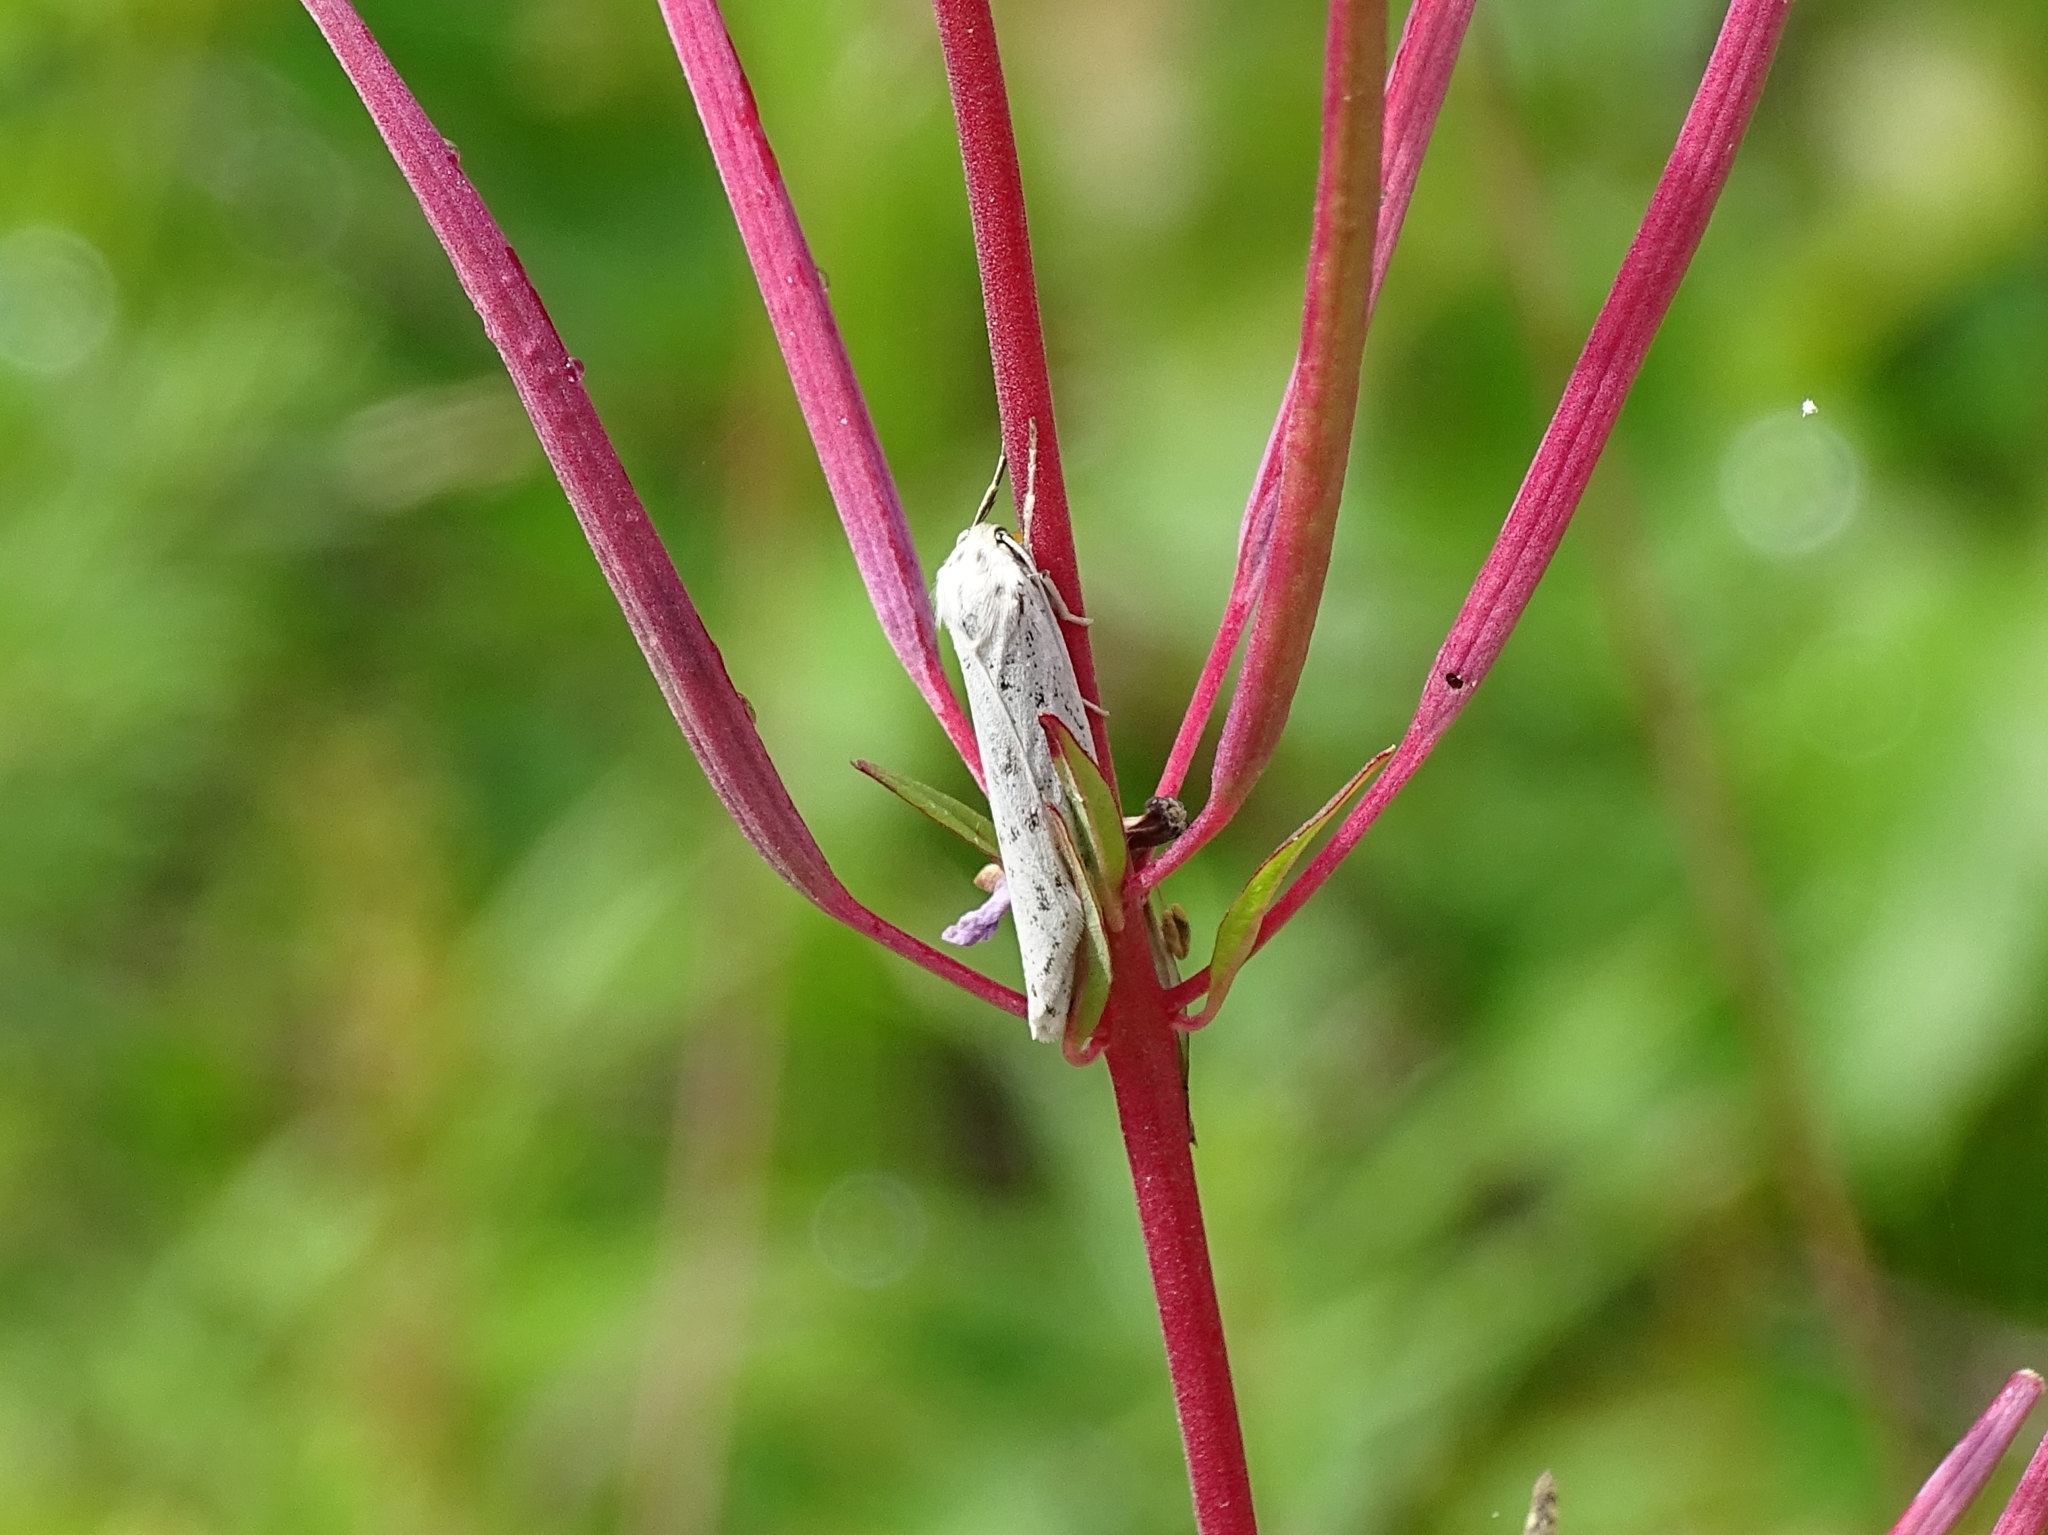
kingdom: Animalia
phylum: Arthropoda
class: Insecta
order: Lepidoptera
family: Erebidae
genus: Coscinia
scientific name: Coscinia cribraria
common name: Speckled footman
